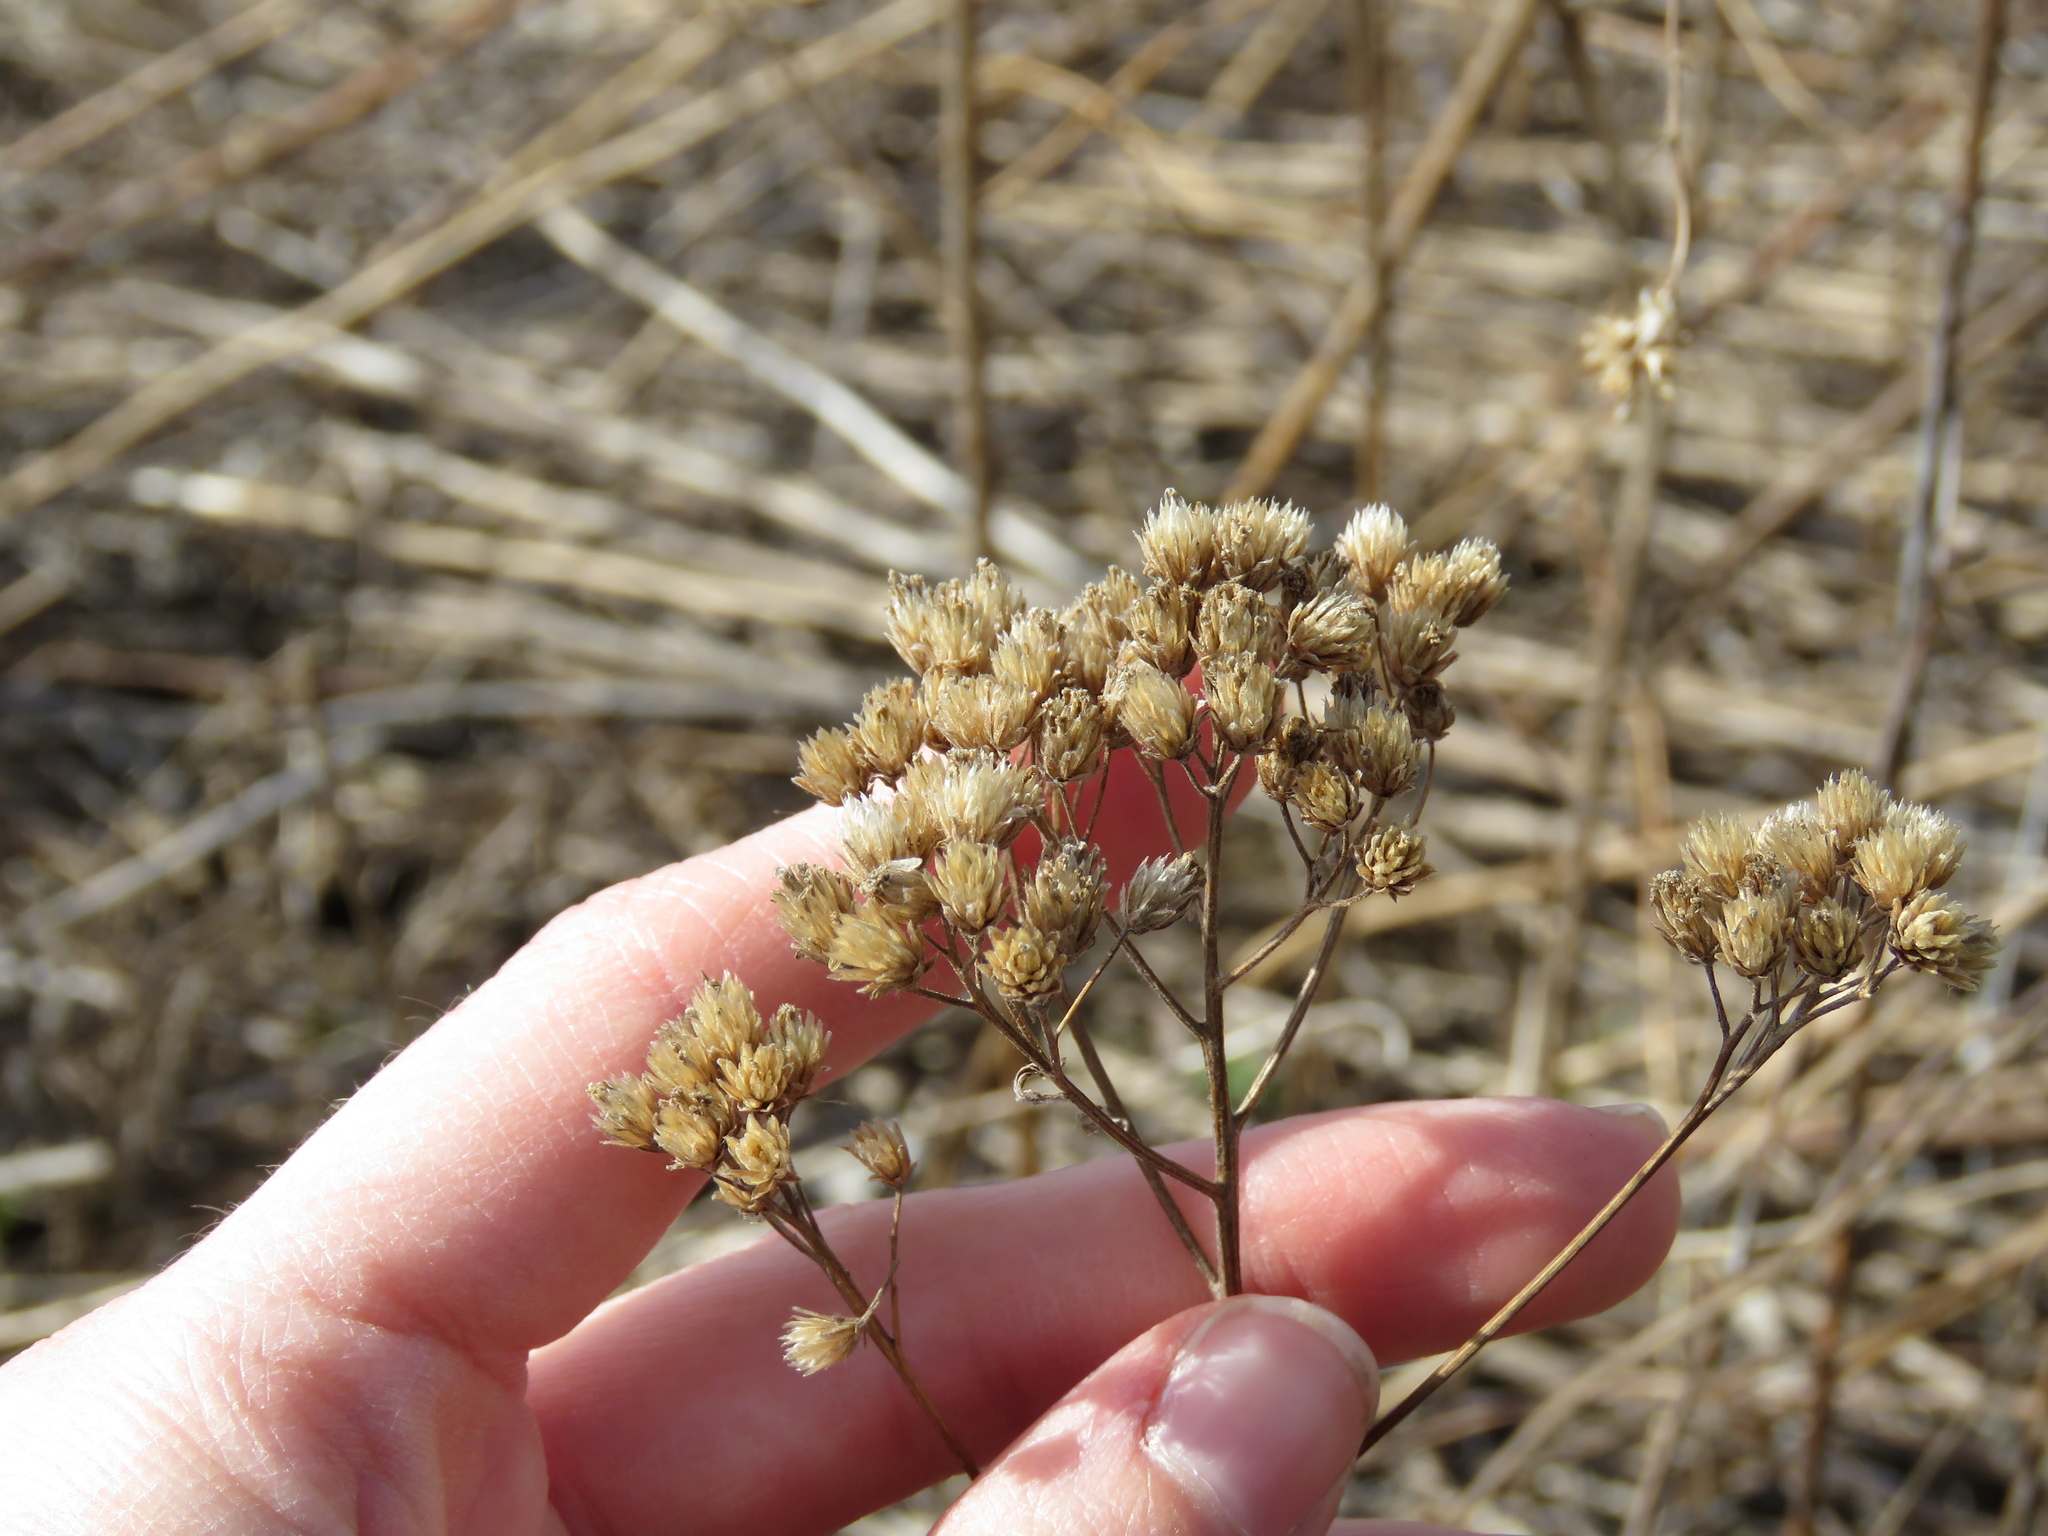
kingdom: Plantae
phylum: Tracheophyta
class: Magnoliopsida
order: Asterales
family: Asteraceae
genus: Achillea
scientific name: Achillea millefolium
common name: Yarrow
